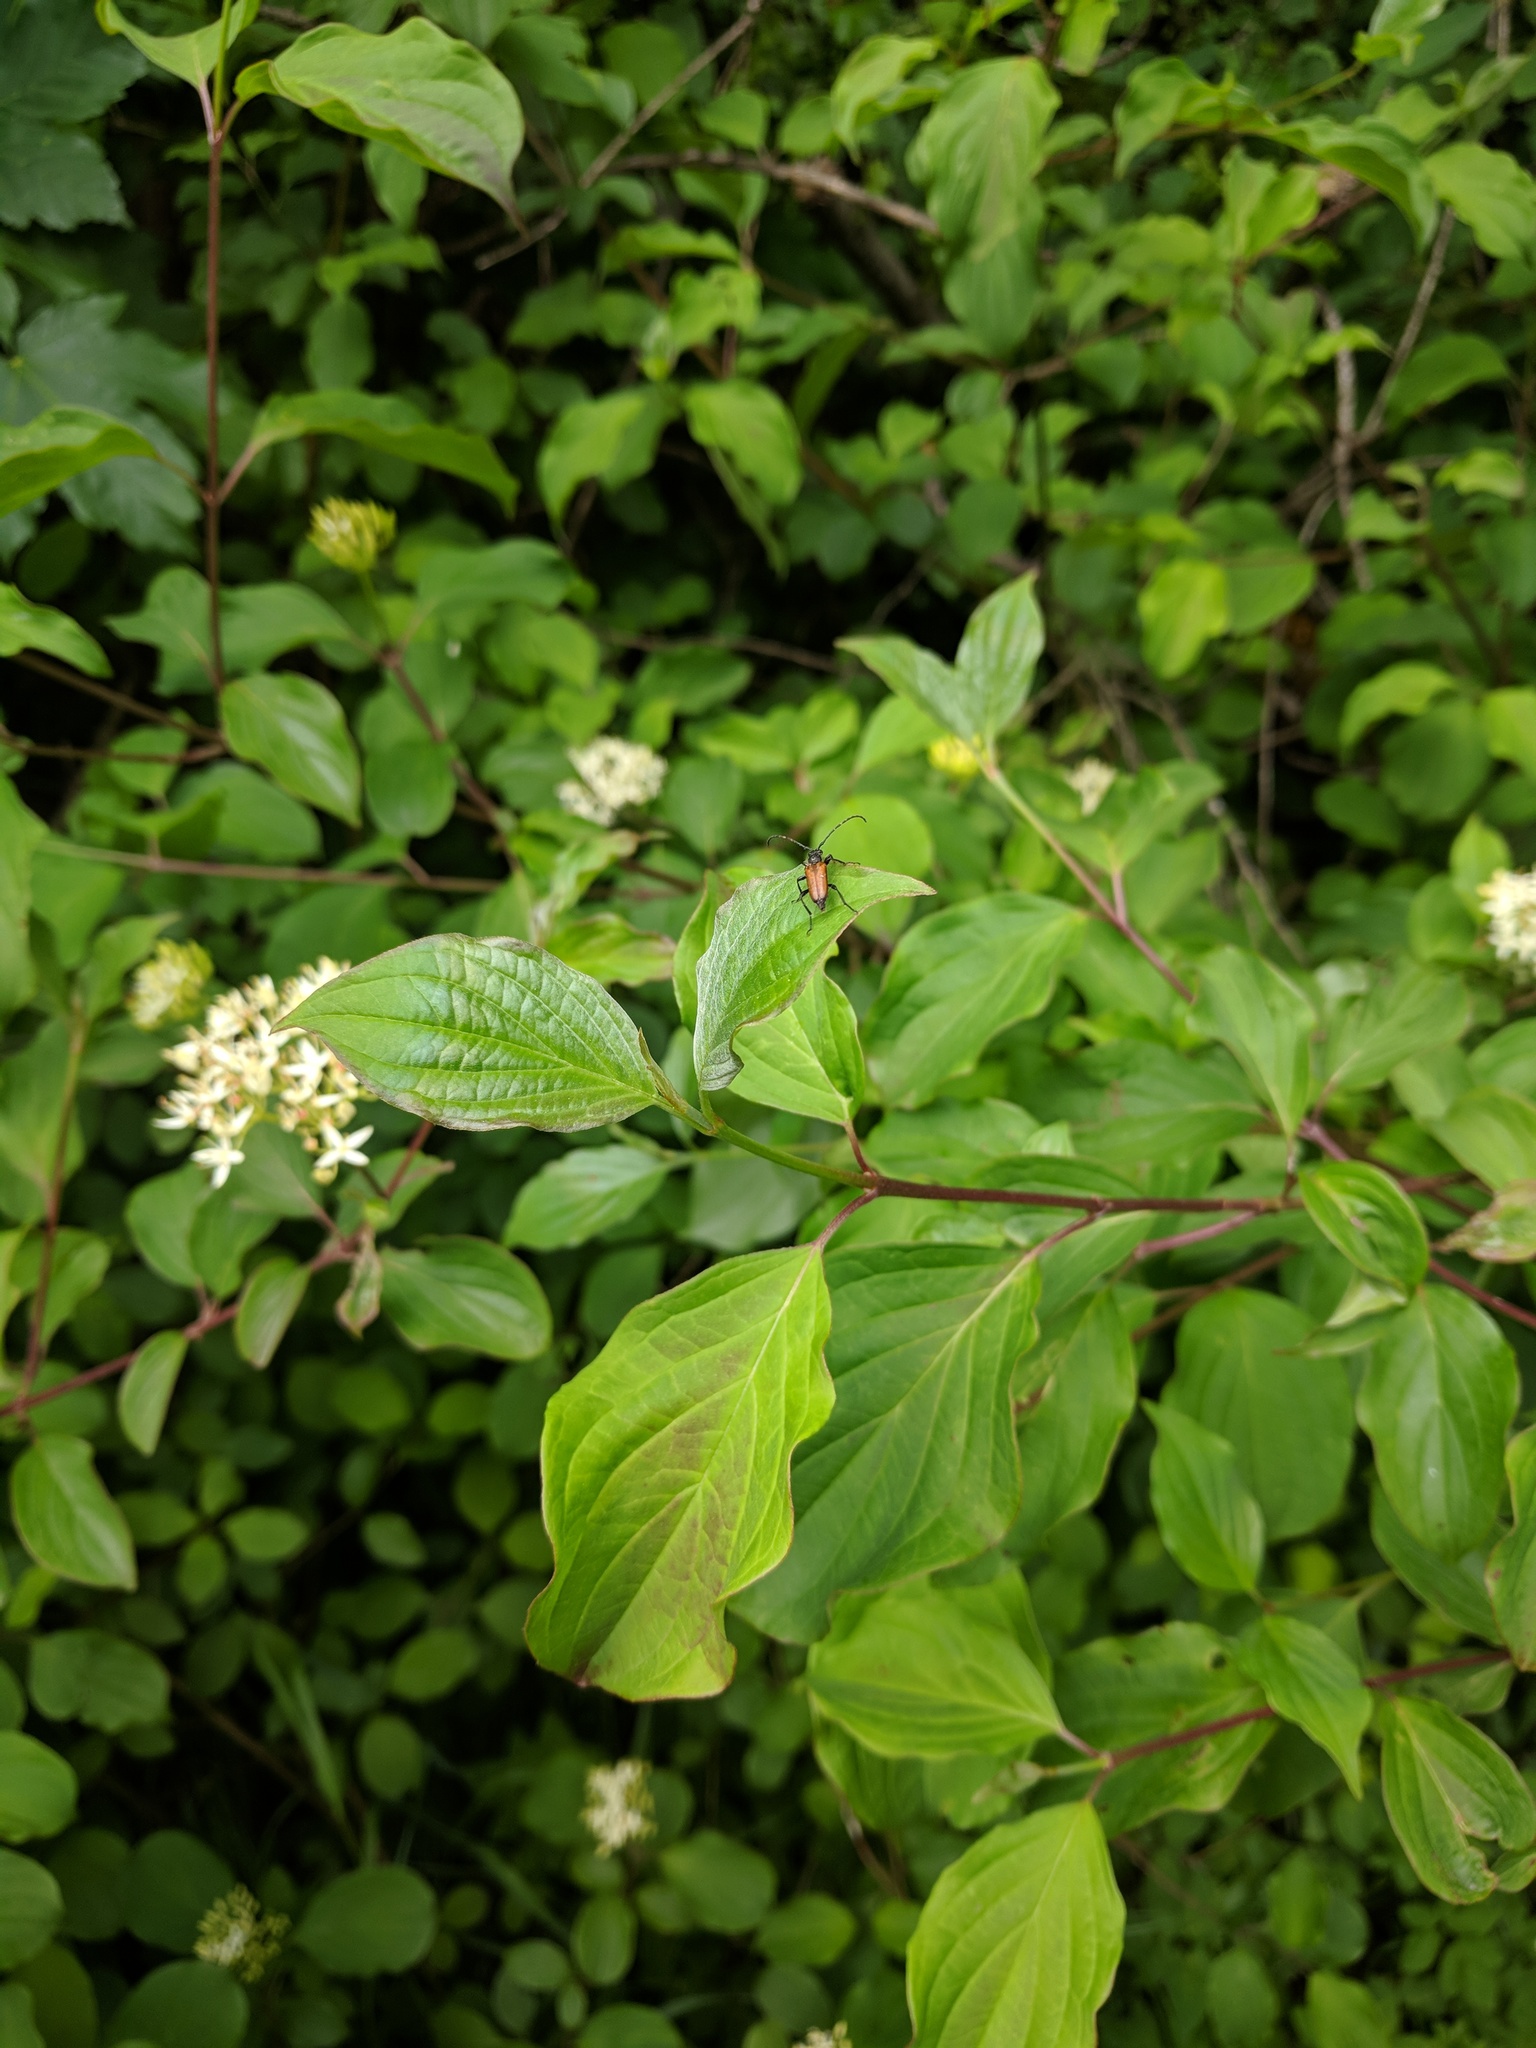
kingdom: Animalia
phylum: Arthropoda
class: Insecta
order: Coleoptera
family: Cerambycidae
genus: Paracorymbia
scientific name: Paracorymbia maculicornis
